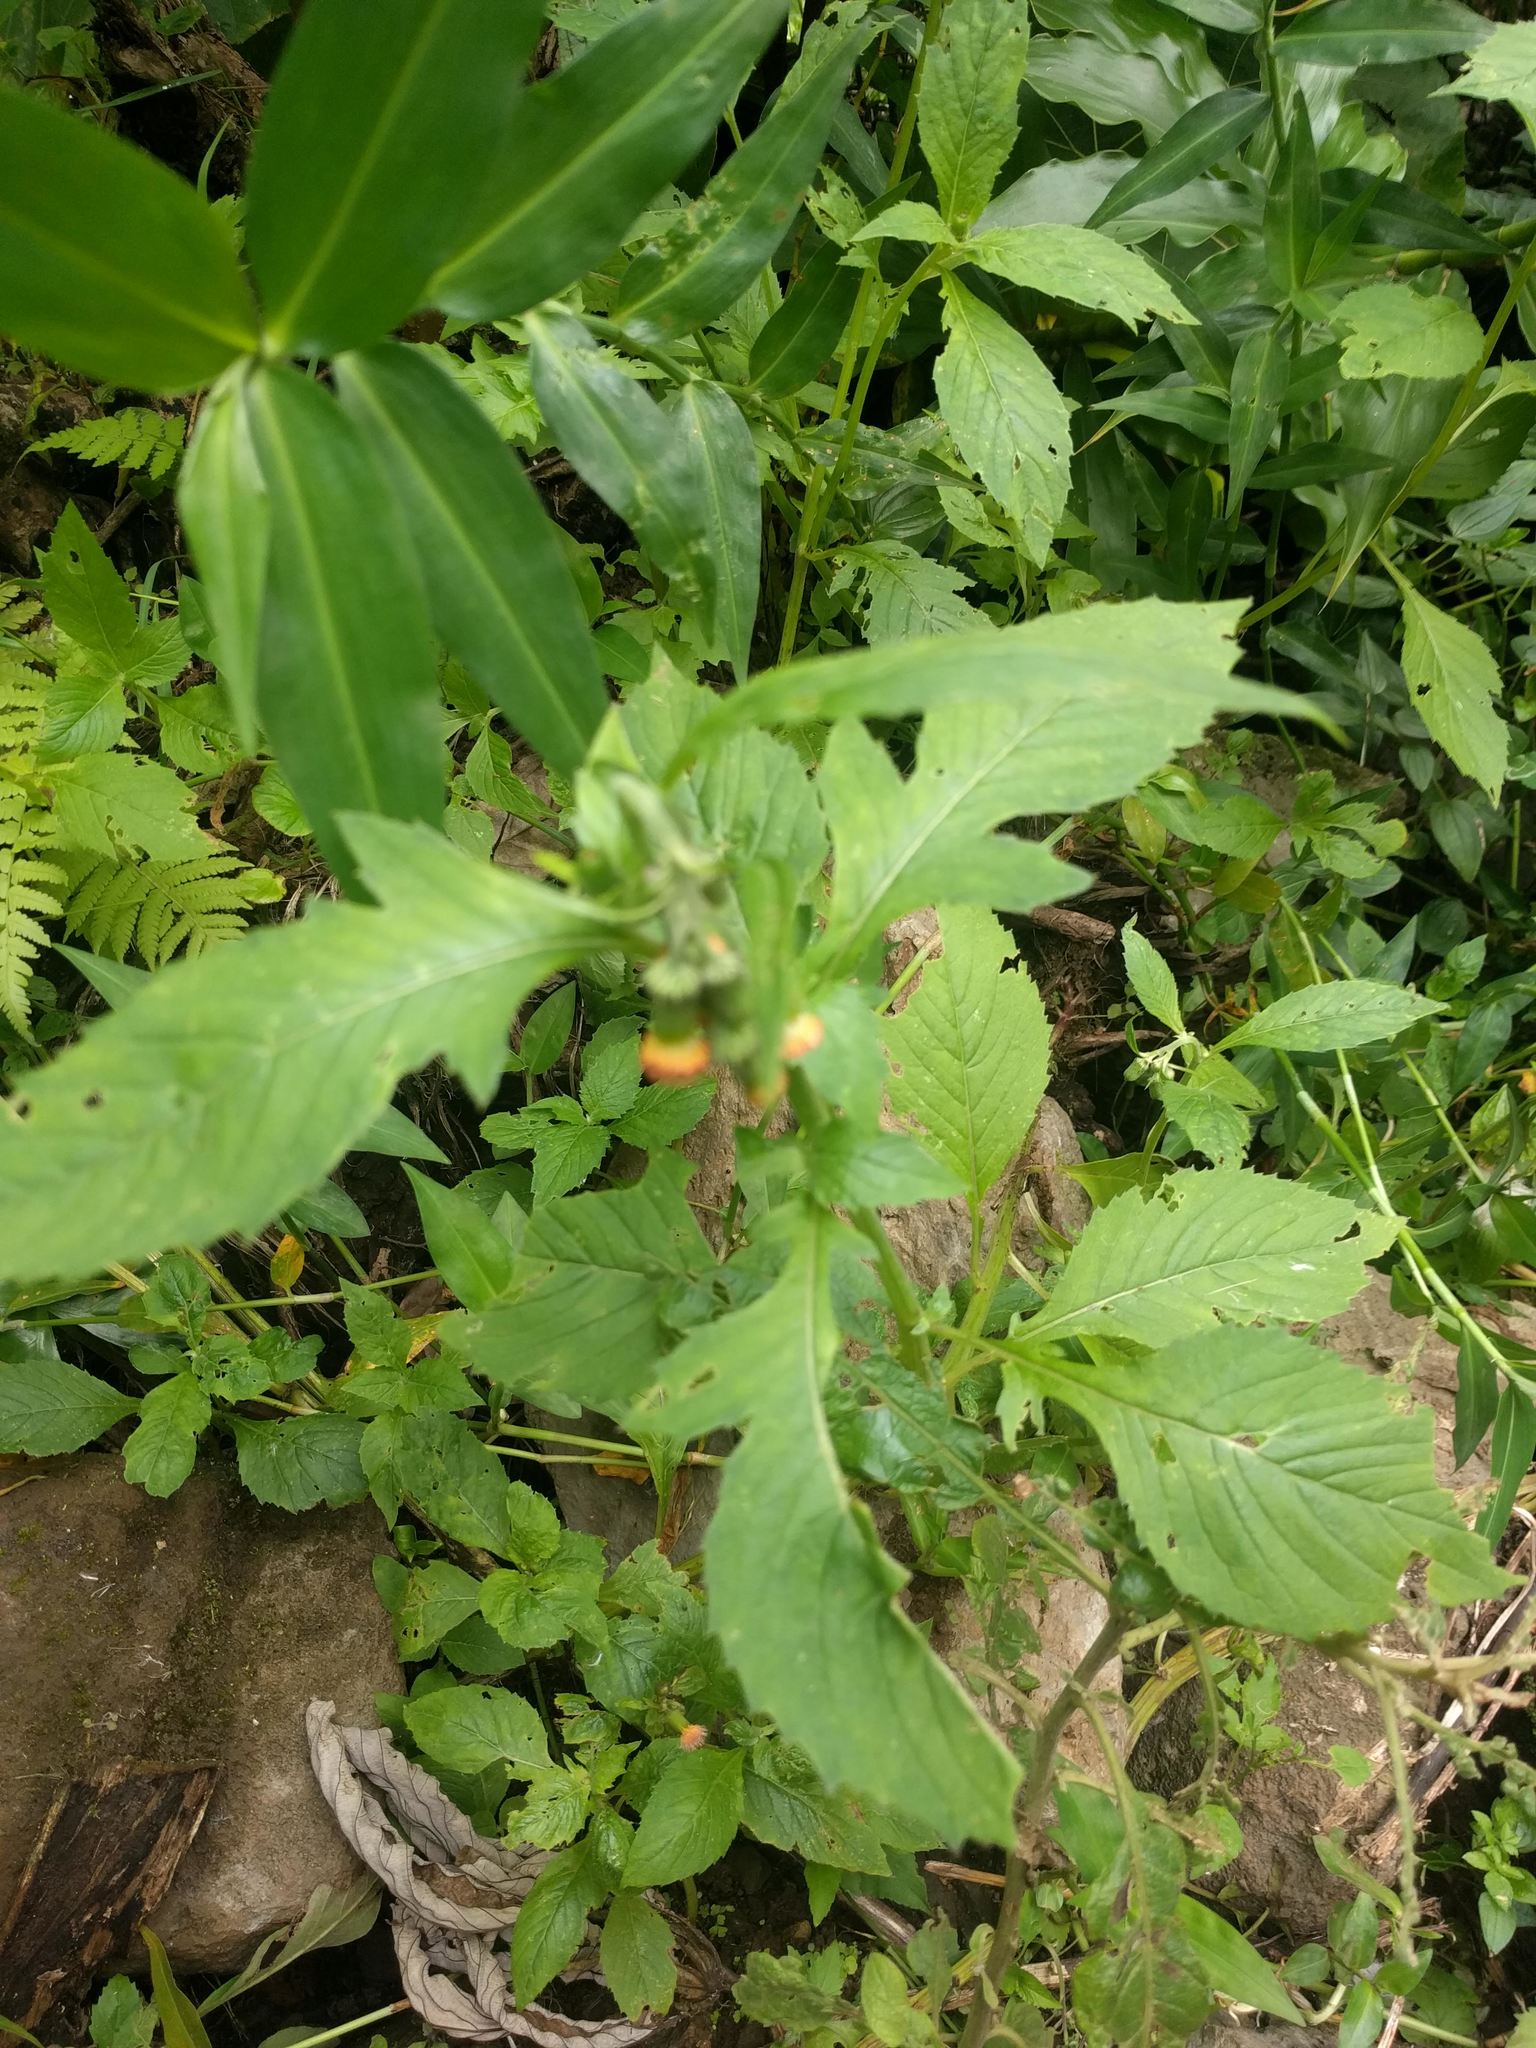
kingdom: Plantae
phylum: Tracheophyta
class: Magnoliopsida
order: Asterales
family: Asteraceae
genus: Crassocephalum
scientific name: Crassocephalum crepidioides
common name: Redflower ragleaf
